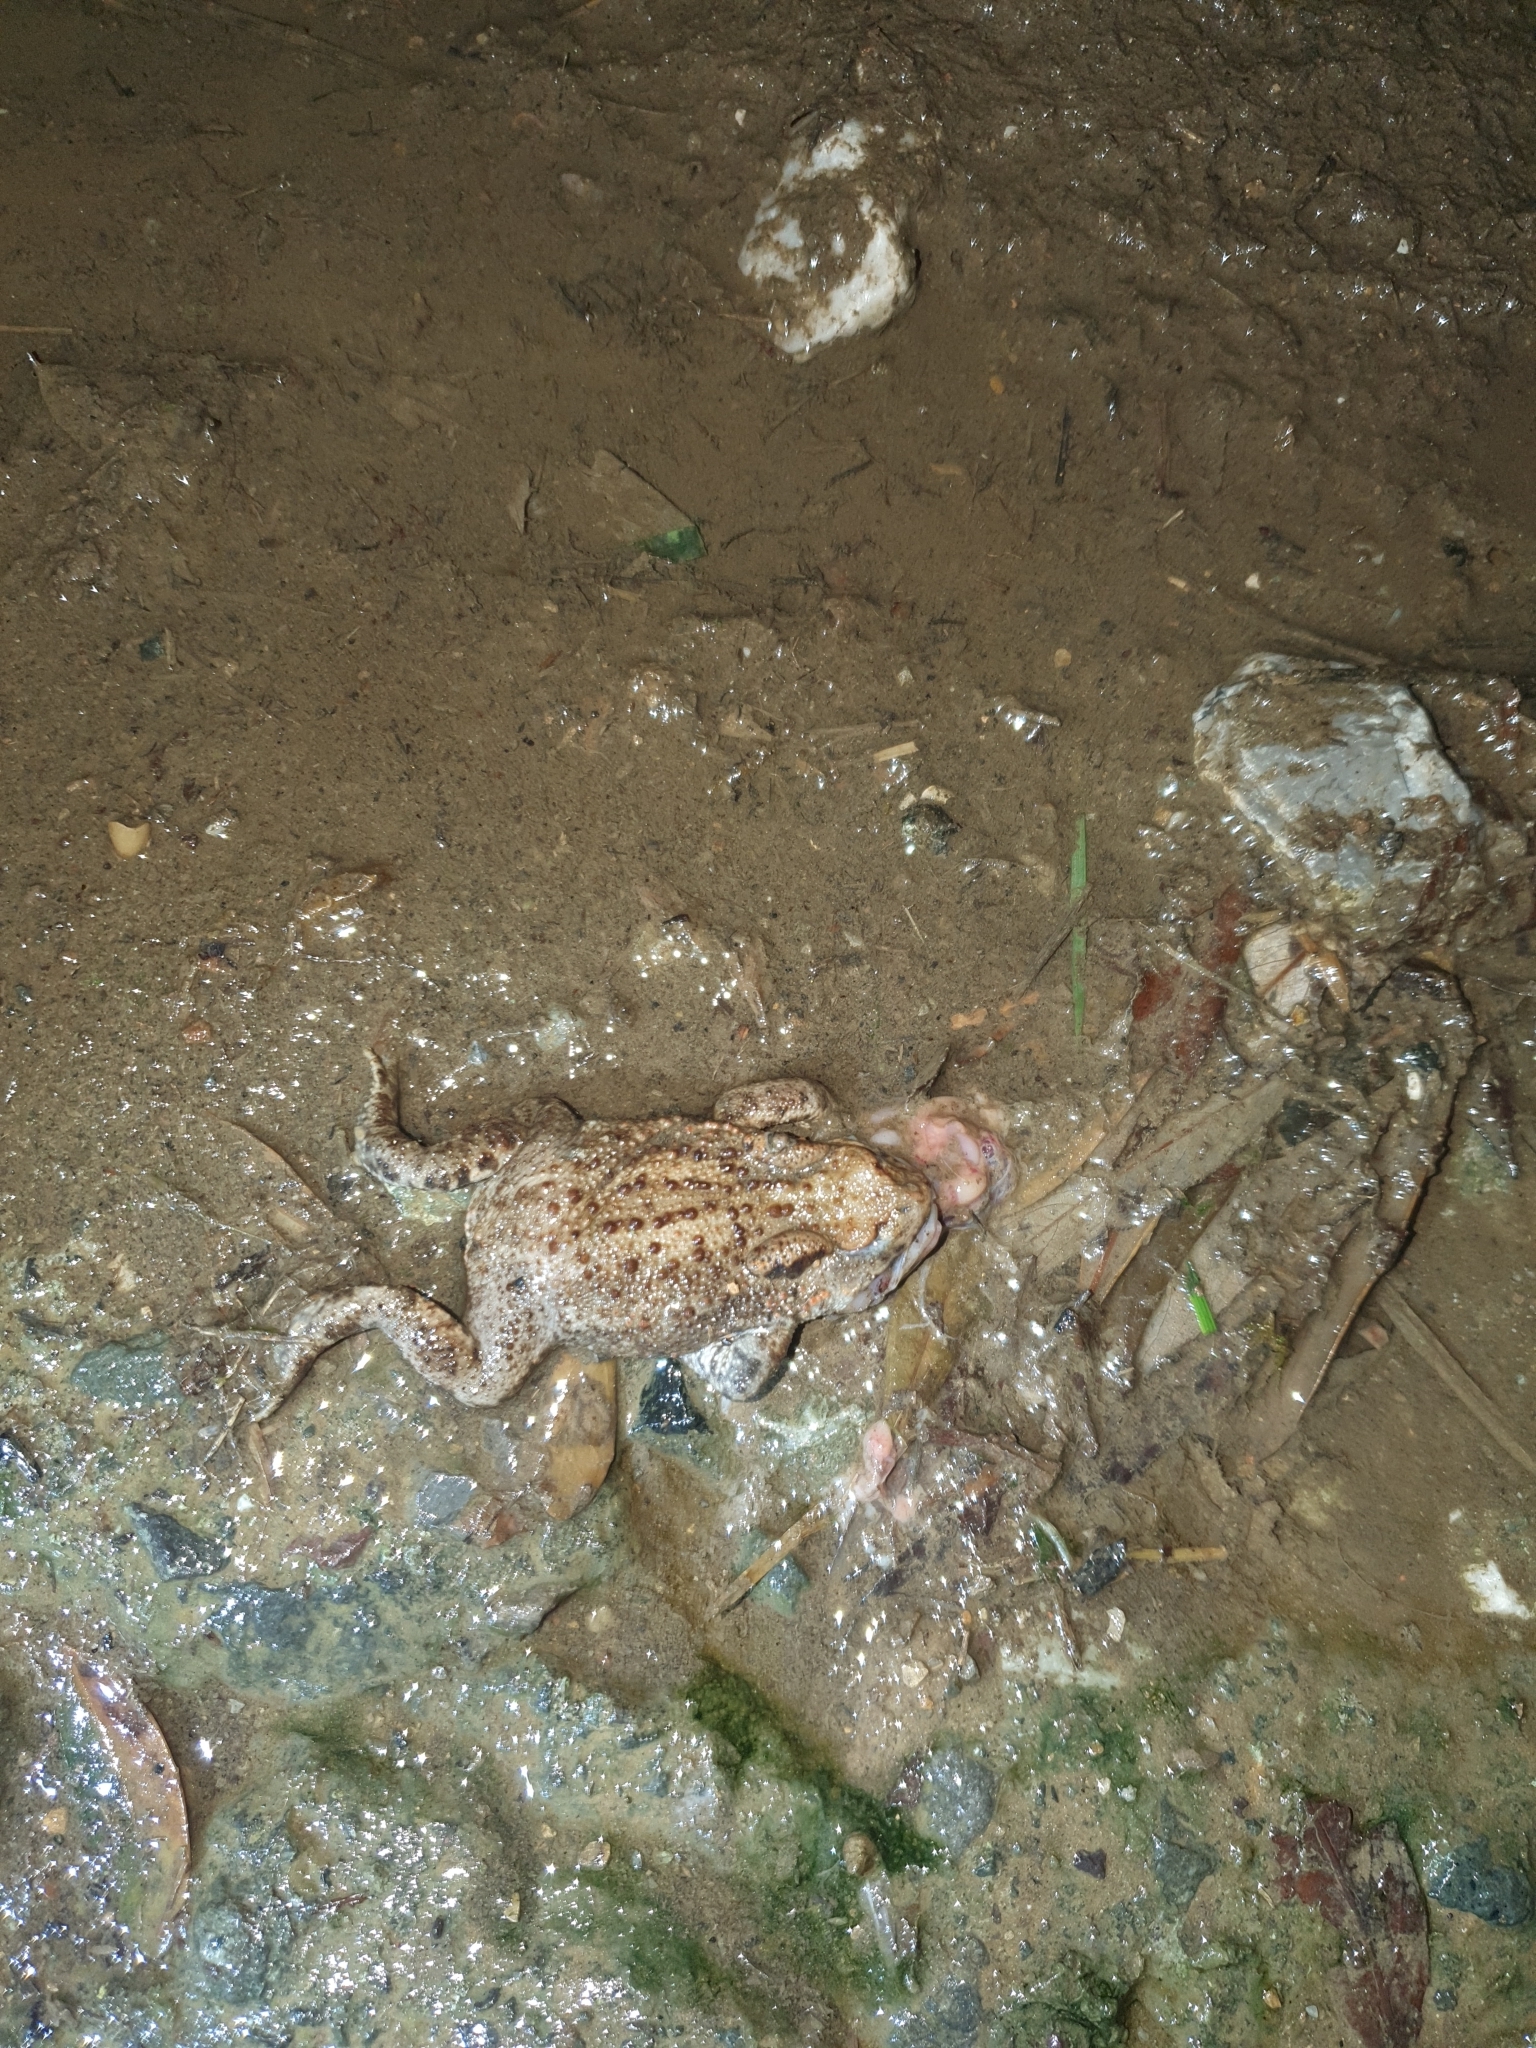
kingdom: Animalia
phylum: Chordata
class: Amphibia
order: Anura
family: Bufonidae
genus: Bufo
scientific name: Bufo bufo
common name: Common toad
